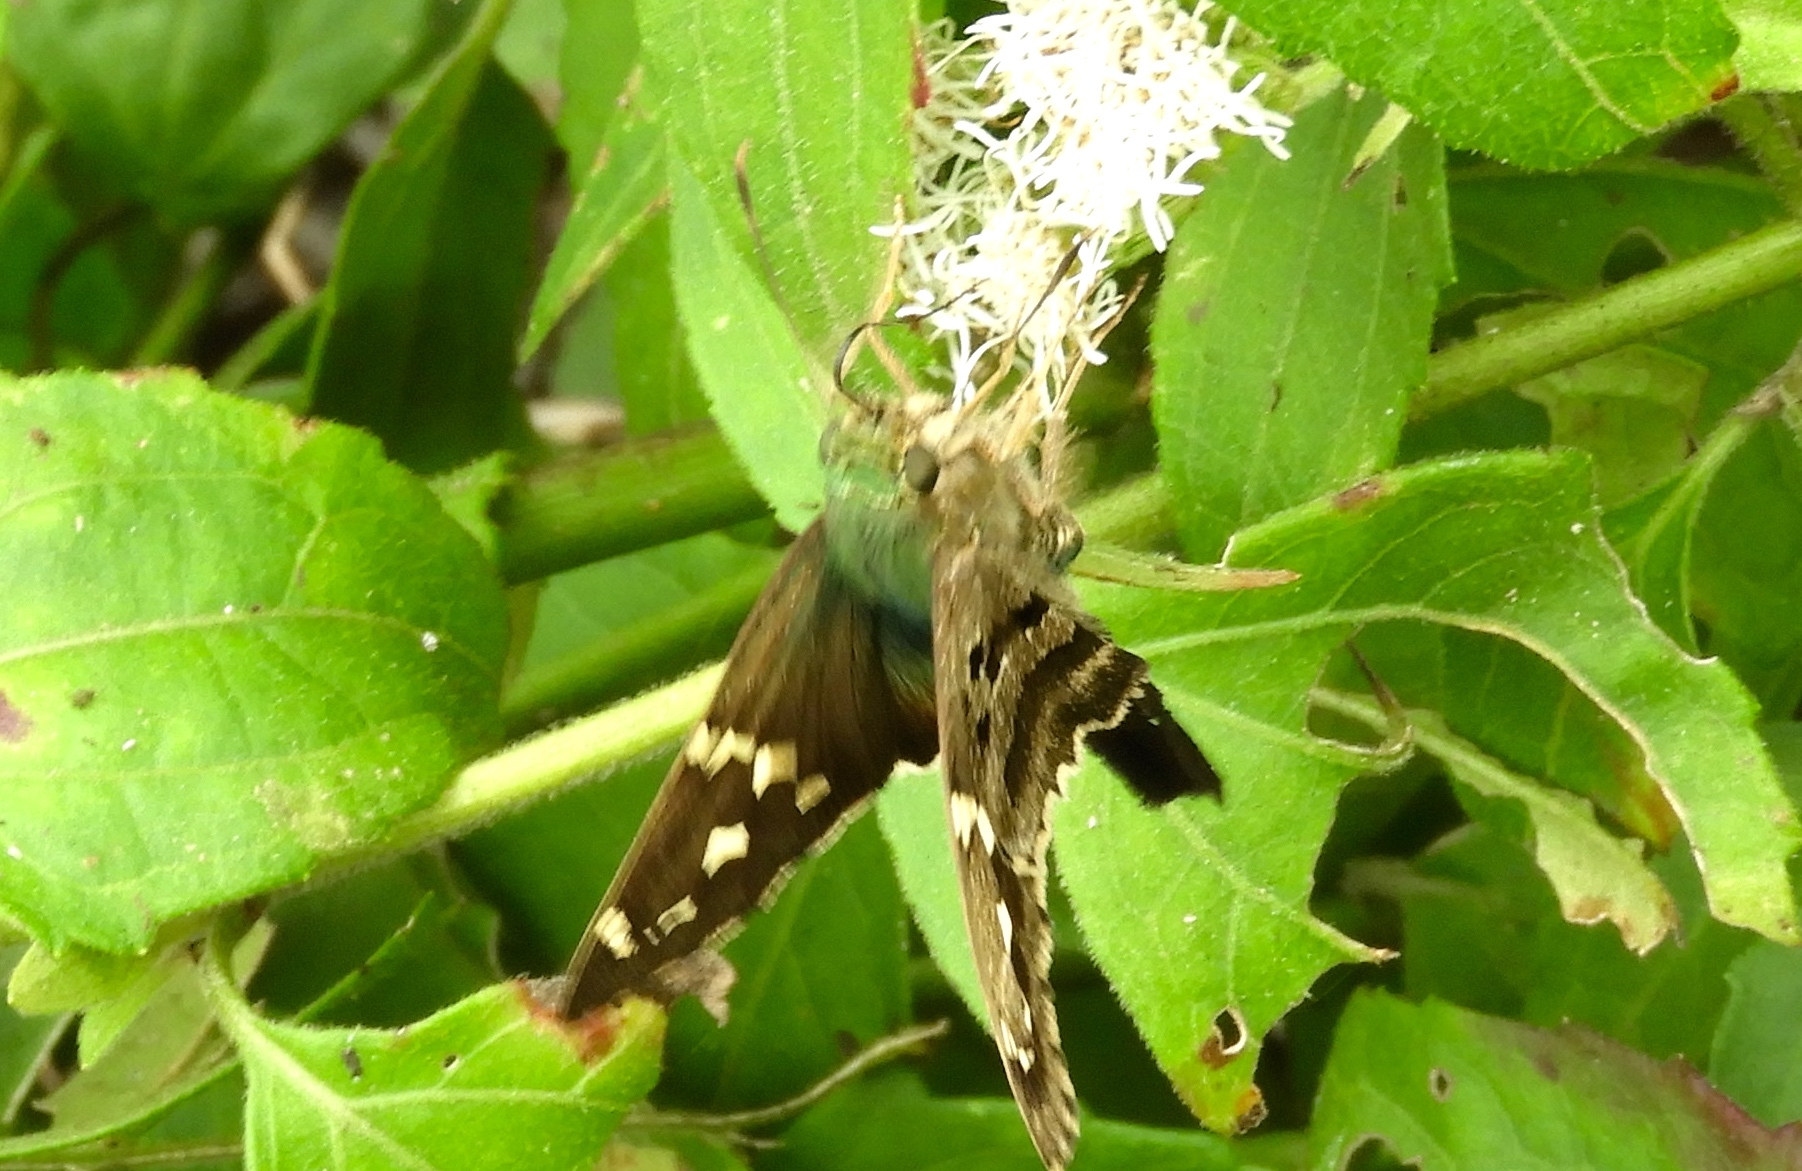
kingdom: Animalia
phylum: Arthropoda
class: Insecta
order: Lepidoptera
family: Hesperiidae
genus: Urbanus
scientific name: Urbanus proteus
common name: Long-tailed skipper
